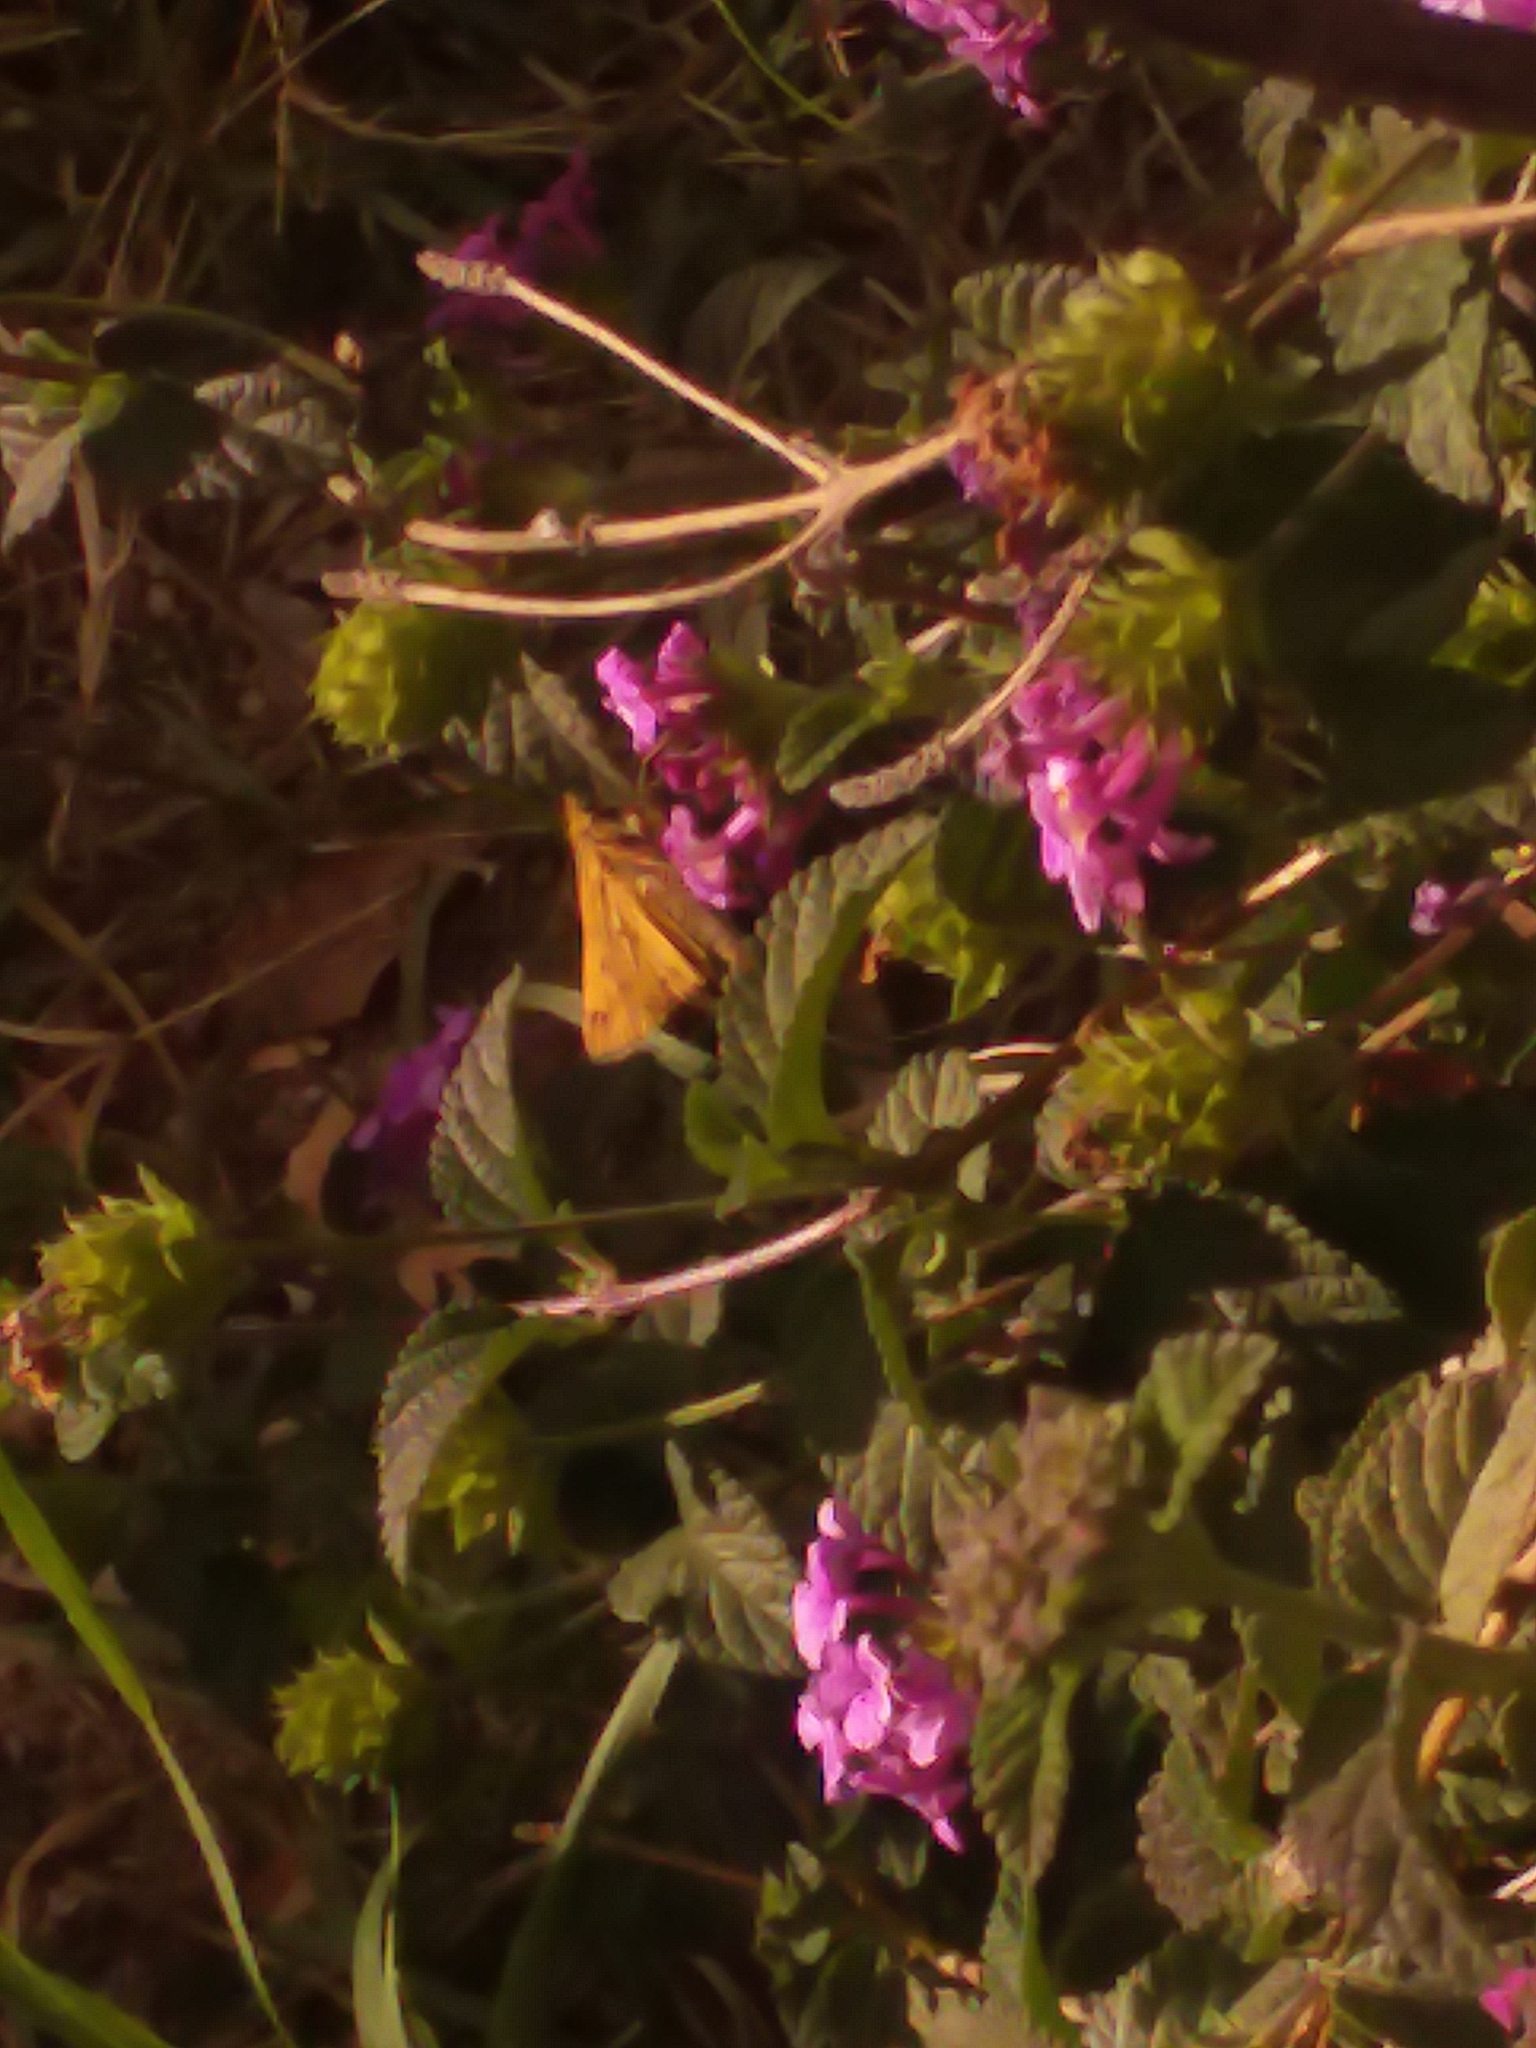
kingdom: Animalia
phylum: Arthropoda
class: Insecta
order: Lepidoptera
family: Hesperiidae
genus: Hylephila
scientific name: Hylephila phyleus
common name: Fiery skipper
